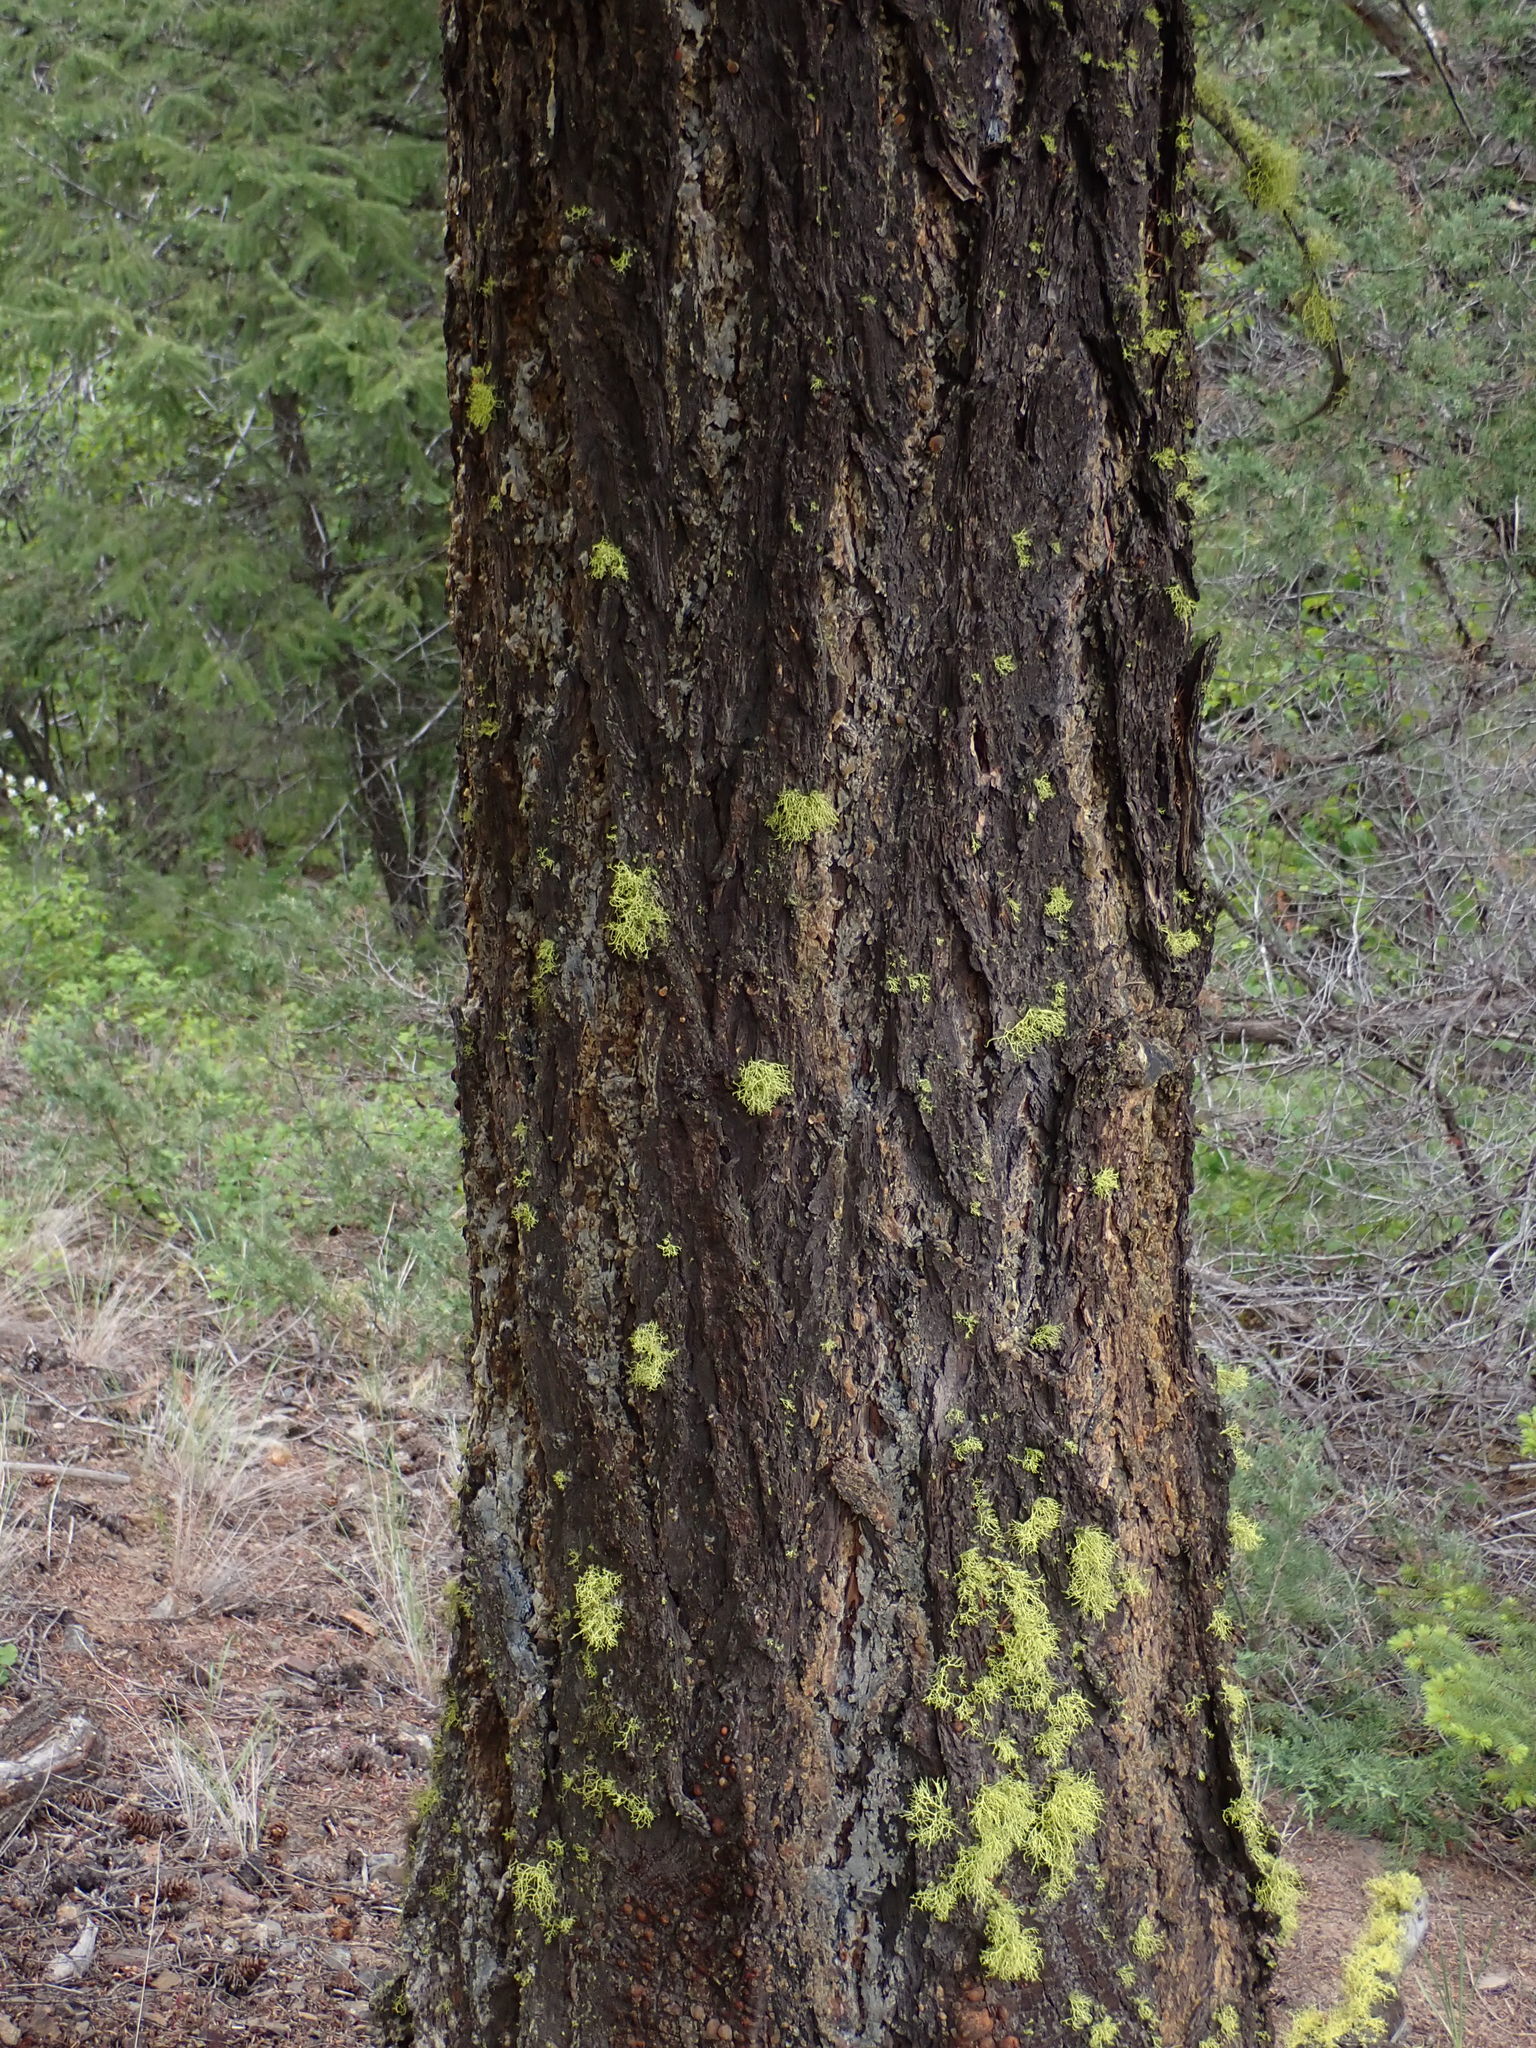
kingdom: Plantae
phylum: Tracheophyta
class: Pinopsida
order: Pinales
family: Pinaceae
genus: Pseudotsuga
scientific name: Pseudotsuga menziesii
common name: Douglas fir
